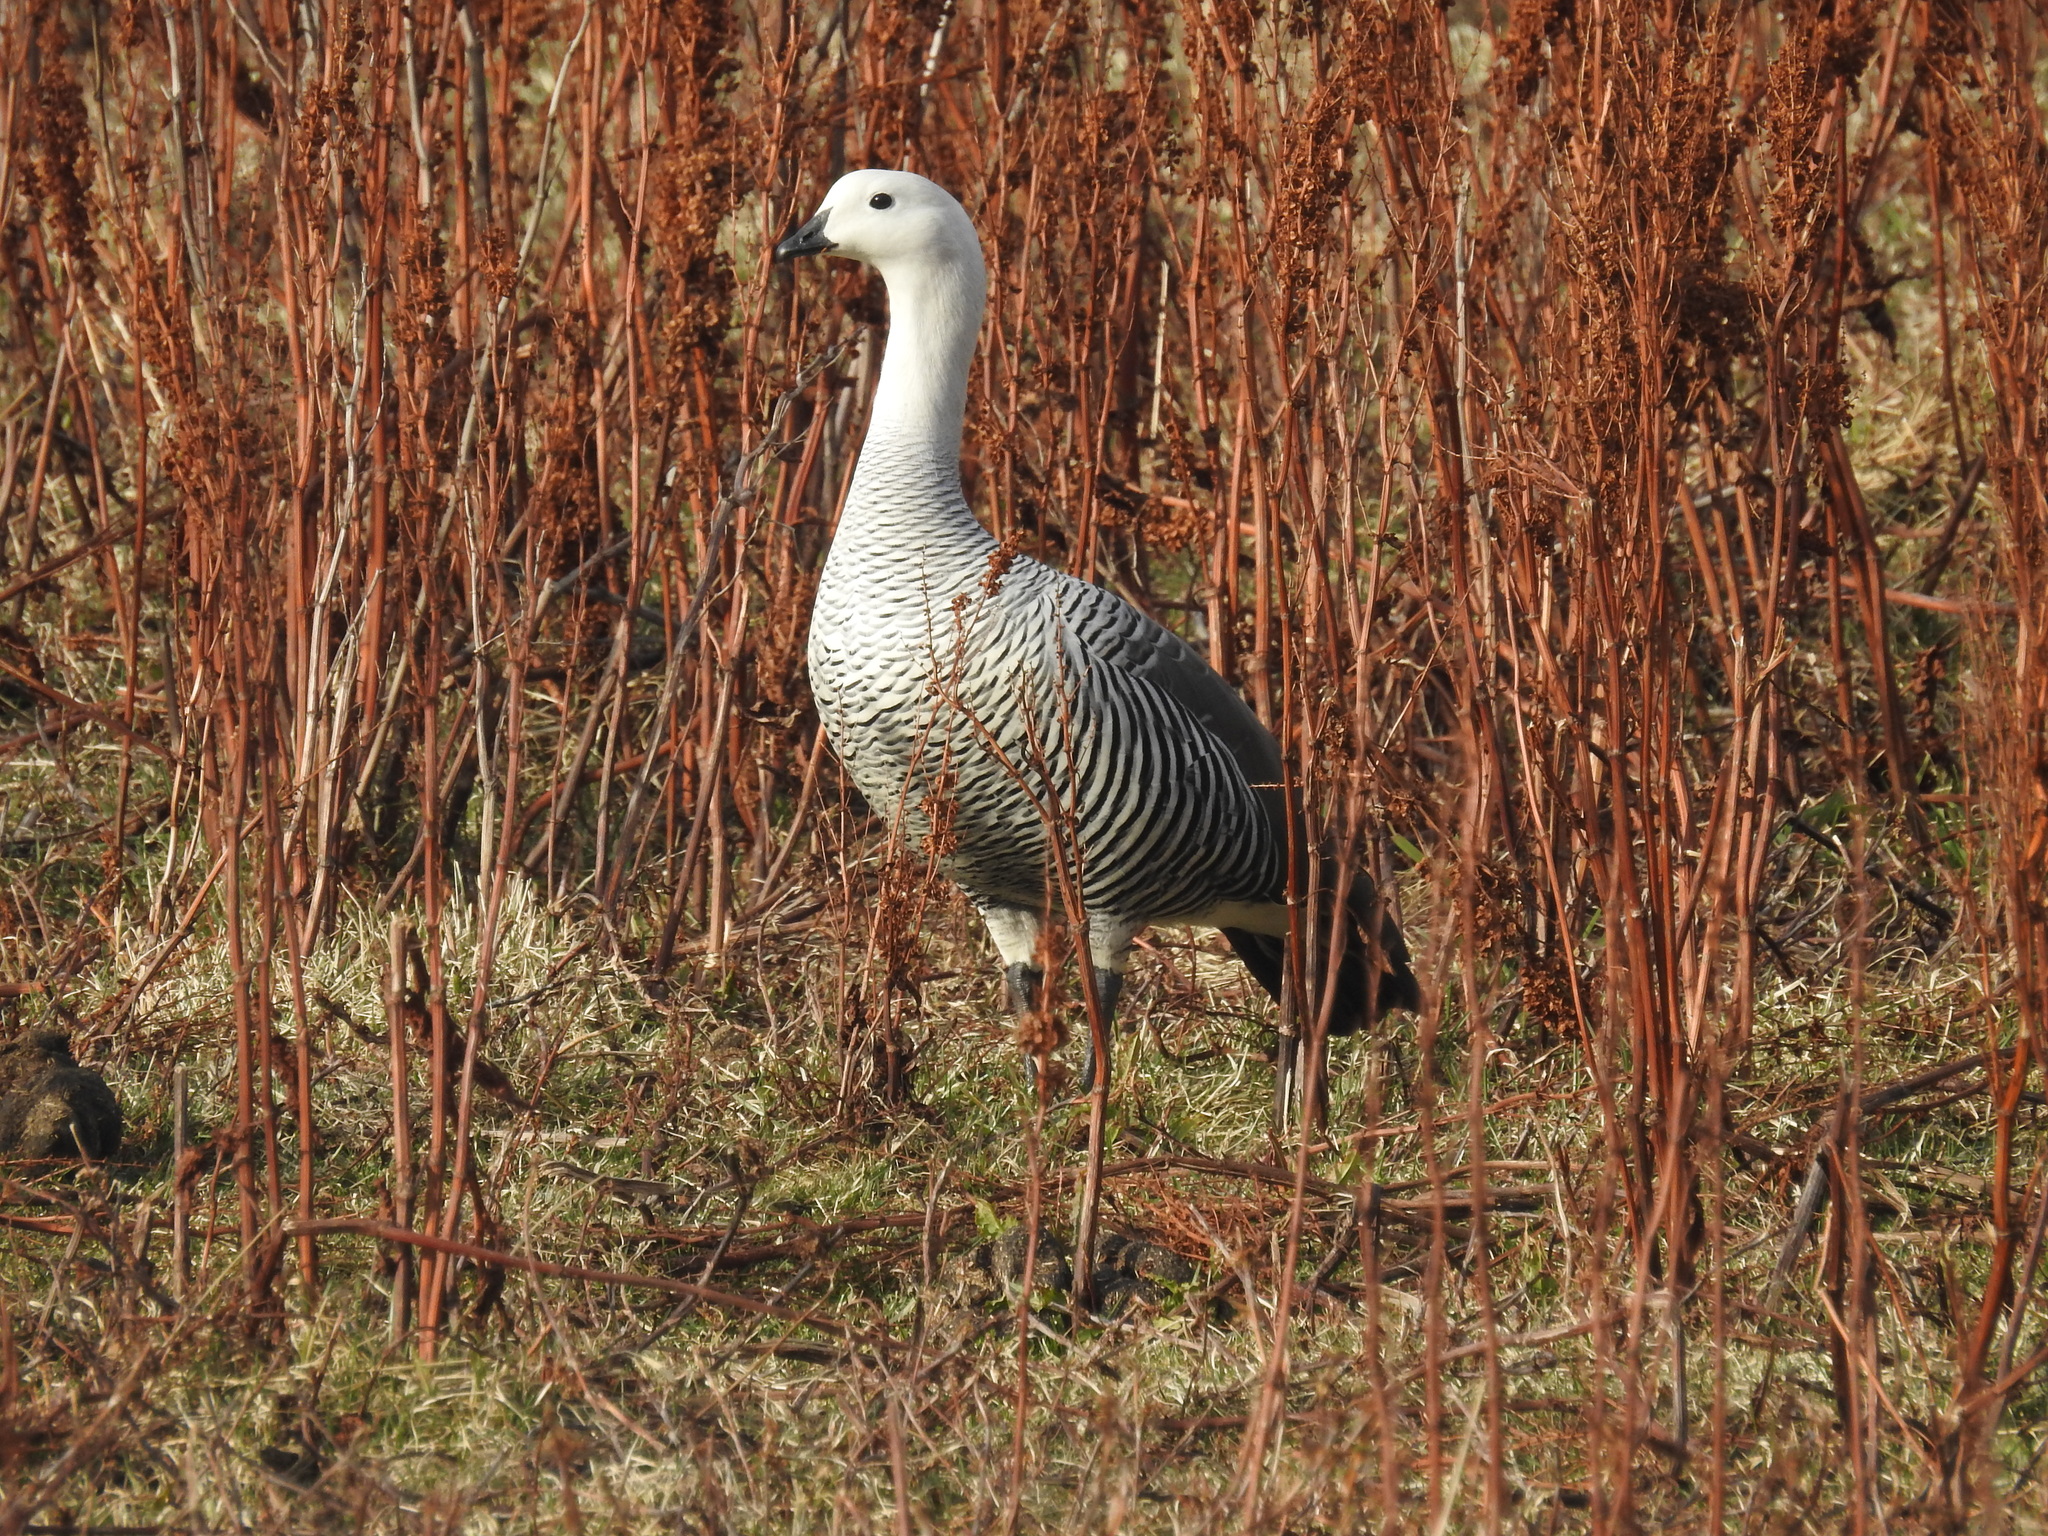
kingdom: Animalia
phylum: Chordata
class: Aves
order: Anseriformes
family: Anatidae
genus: Chloephaga
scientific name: Chloephaga picta
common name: Upland goose
